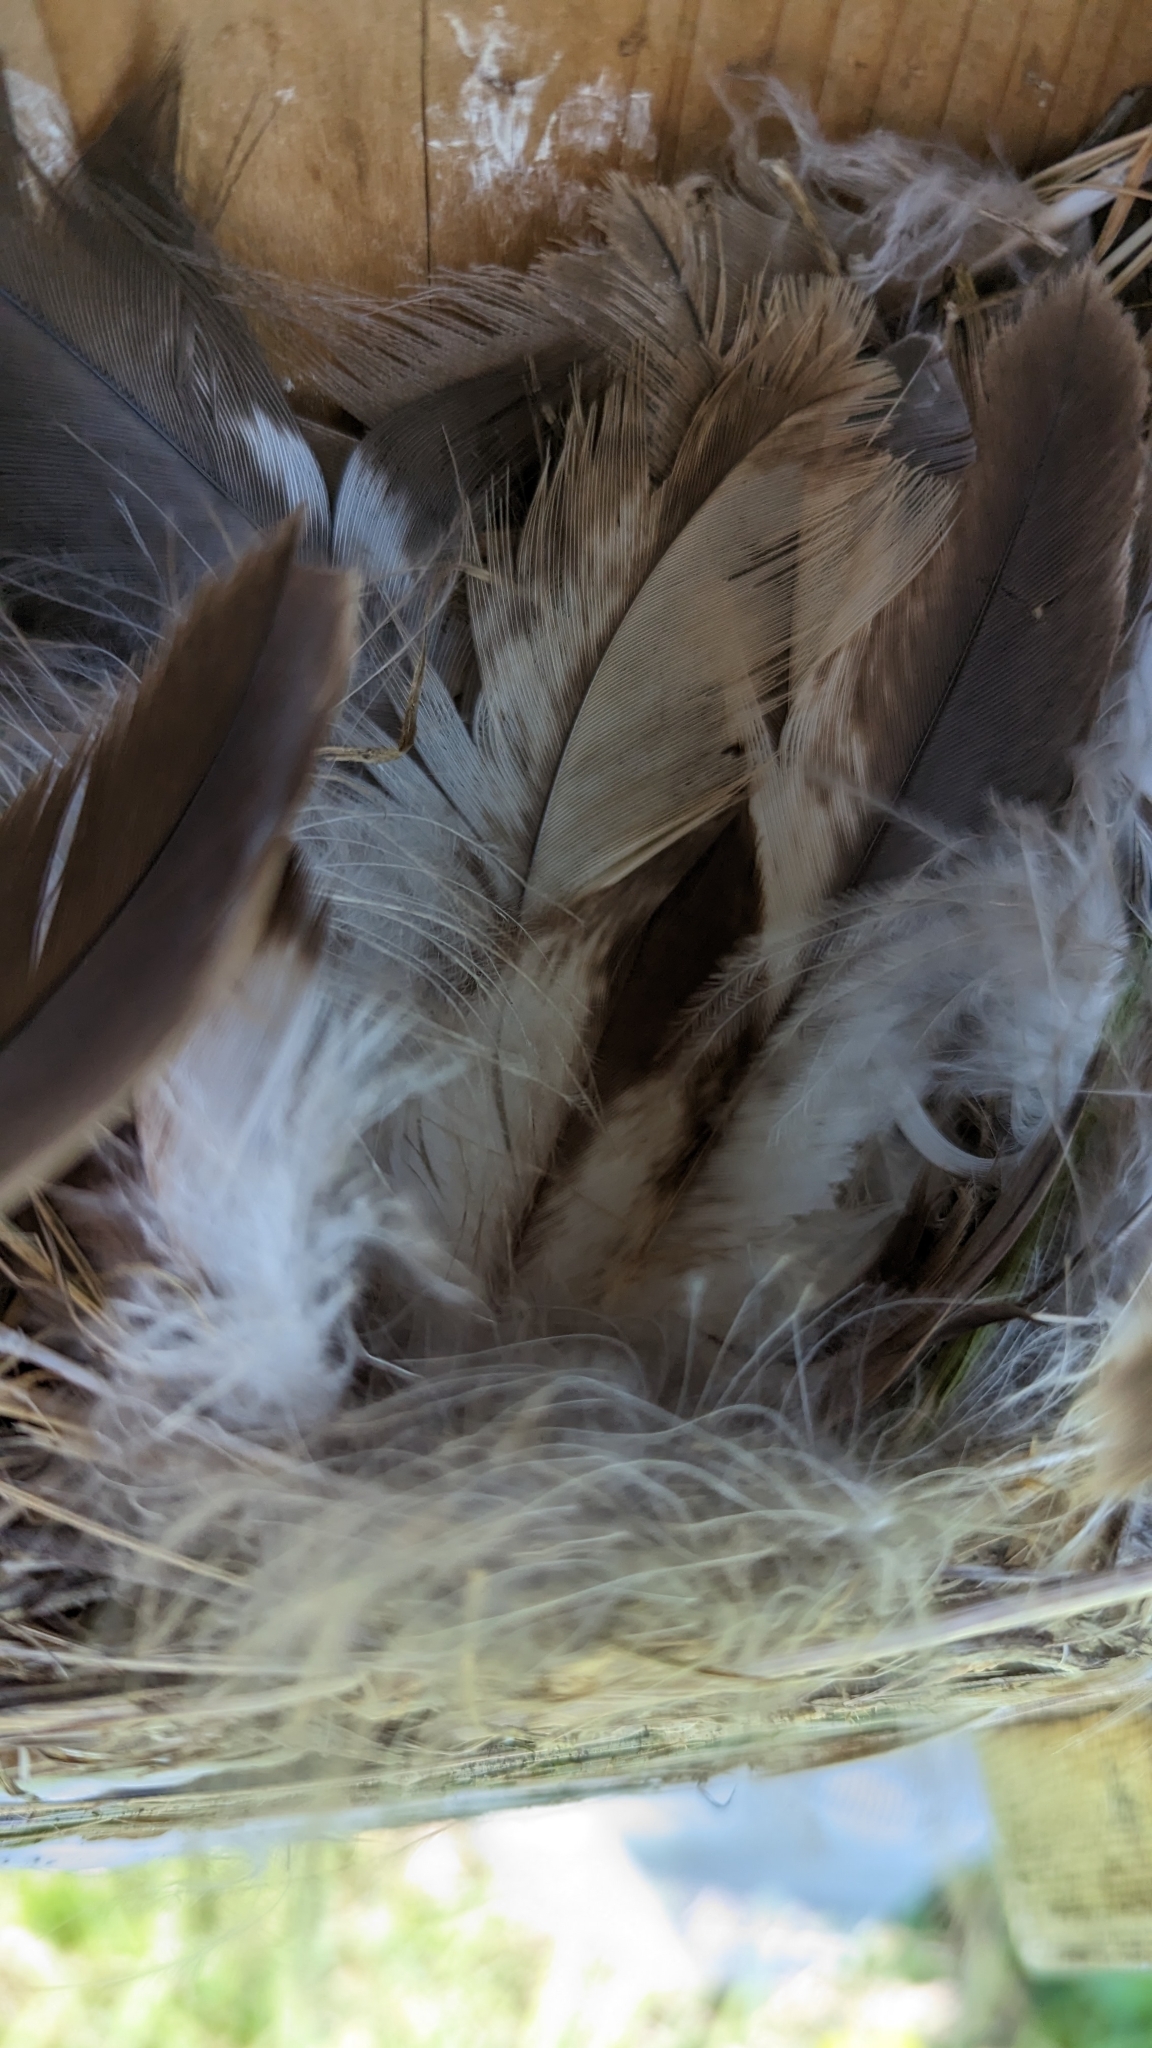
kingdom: Animalia
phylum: Chordata
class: Aves
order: Passeriformes
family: Hirundinidae
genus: Tachycineta
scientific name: Tachycineta bicolor
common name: Tree swallow
